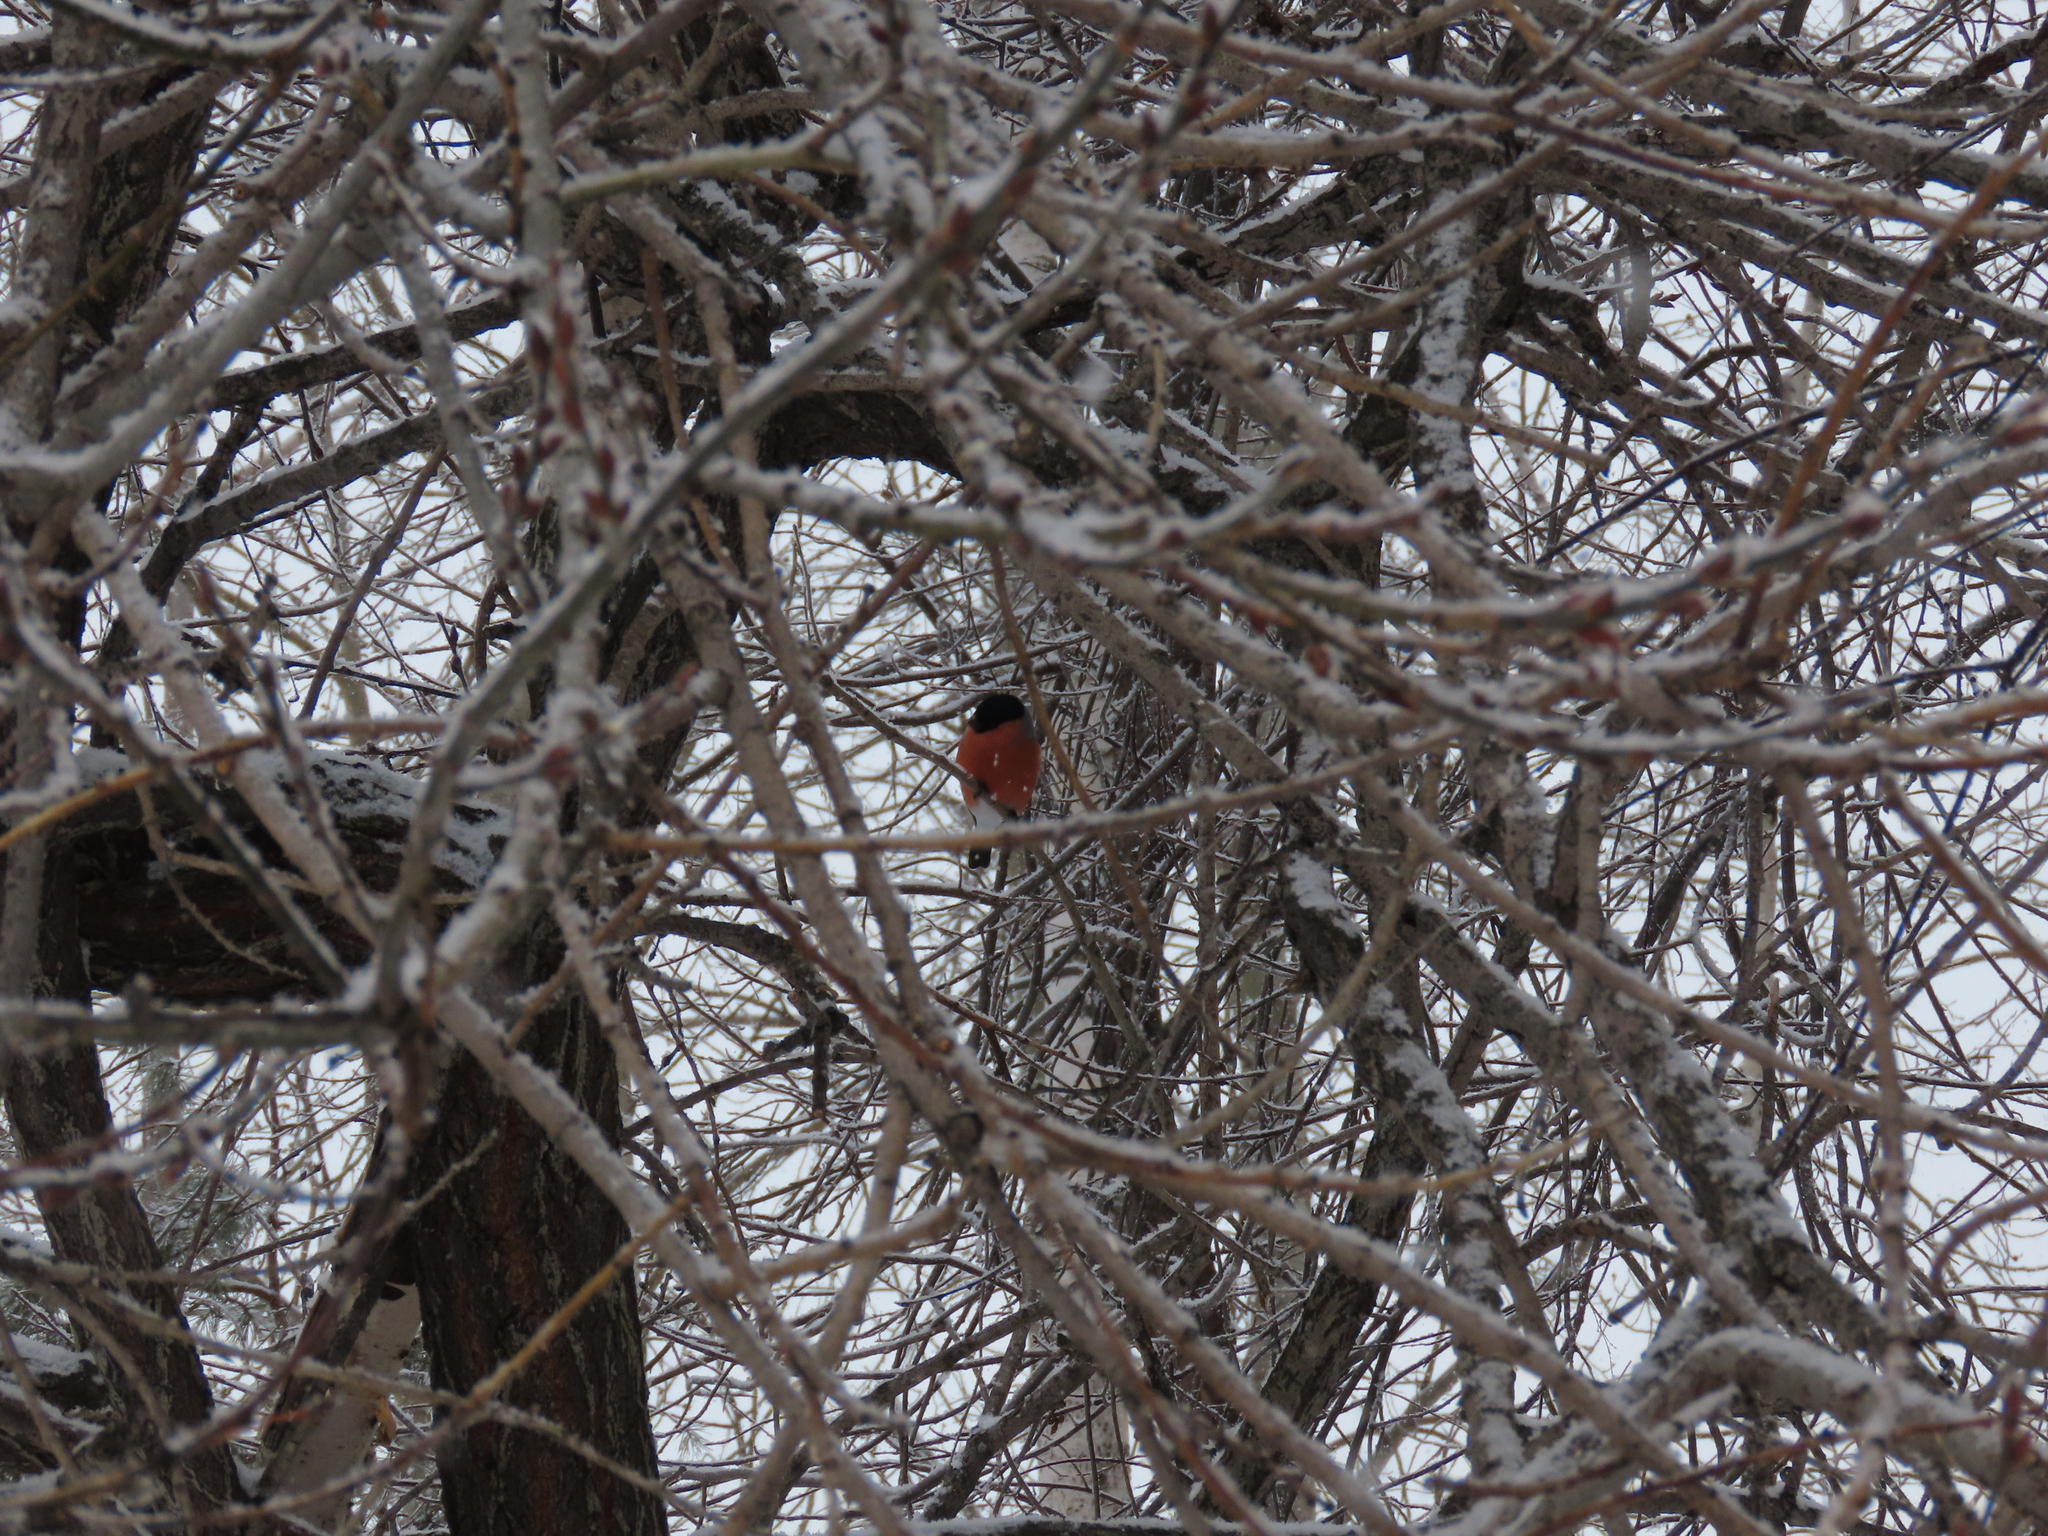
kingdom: Animalia
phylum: Chordata
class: Aves
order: Passeriformes
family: Fringillidae
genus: Pyrrhula
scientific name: Pyrrhula pyrrhula
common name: Eurasian bullfinch
